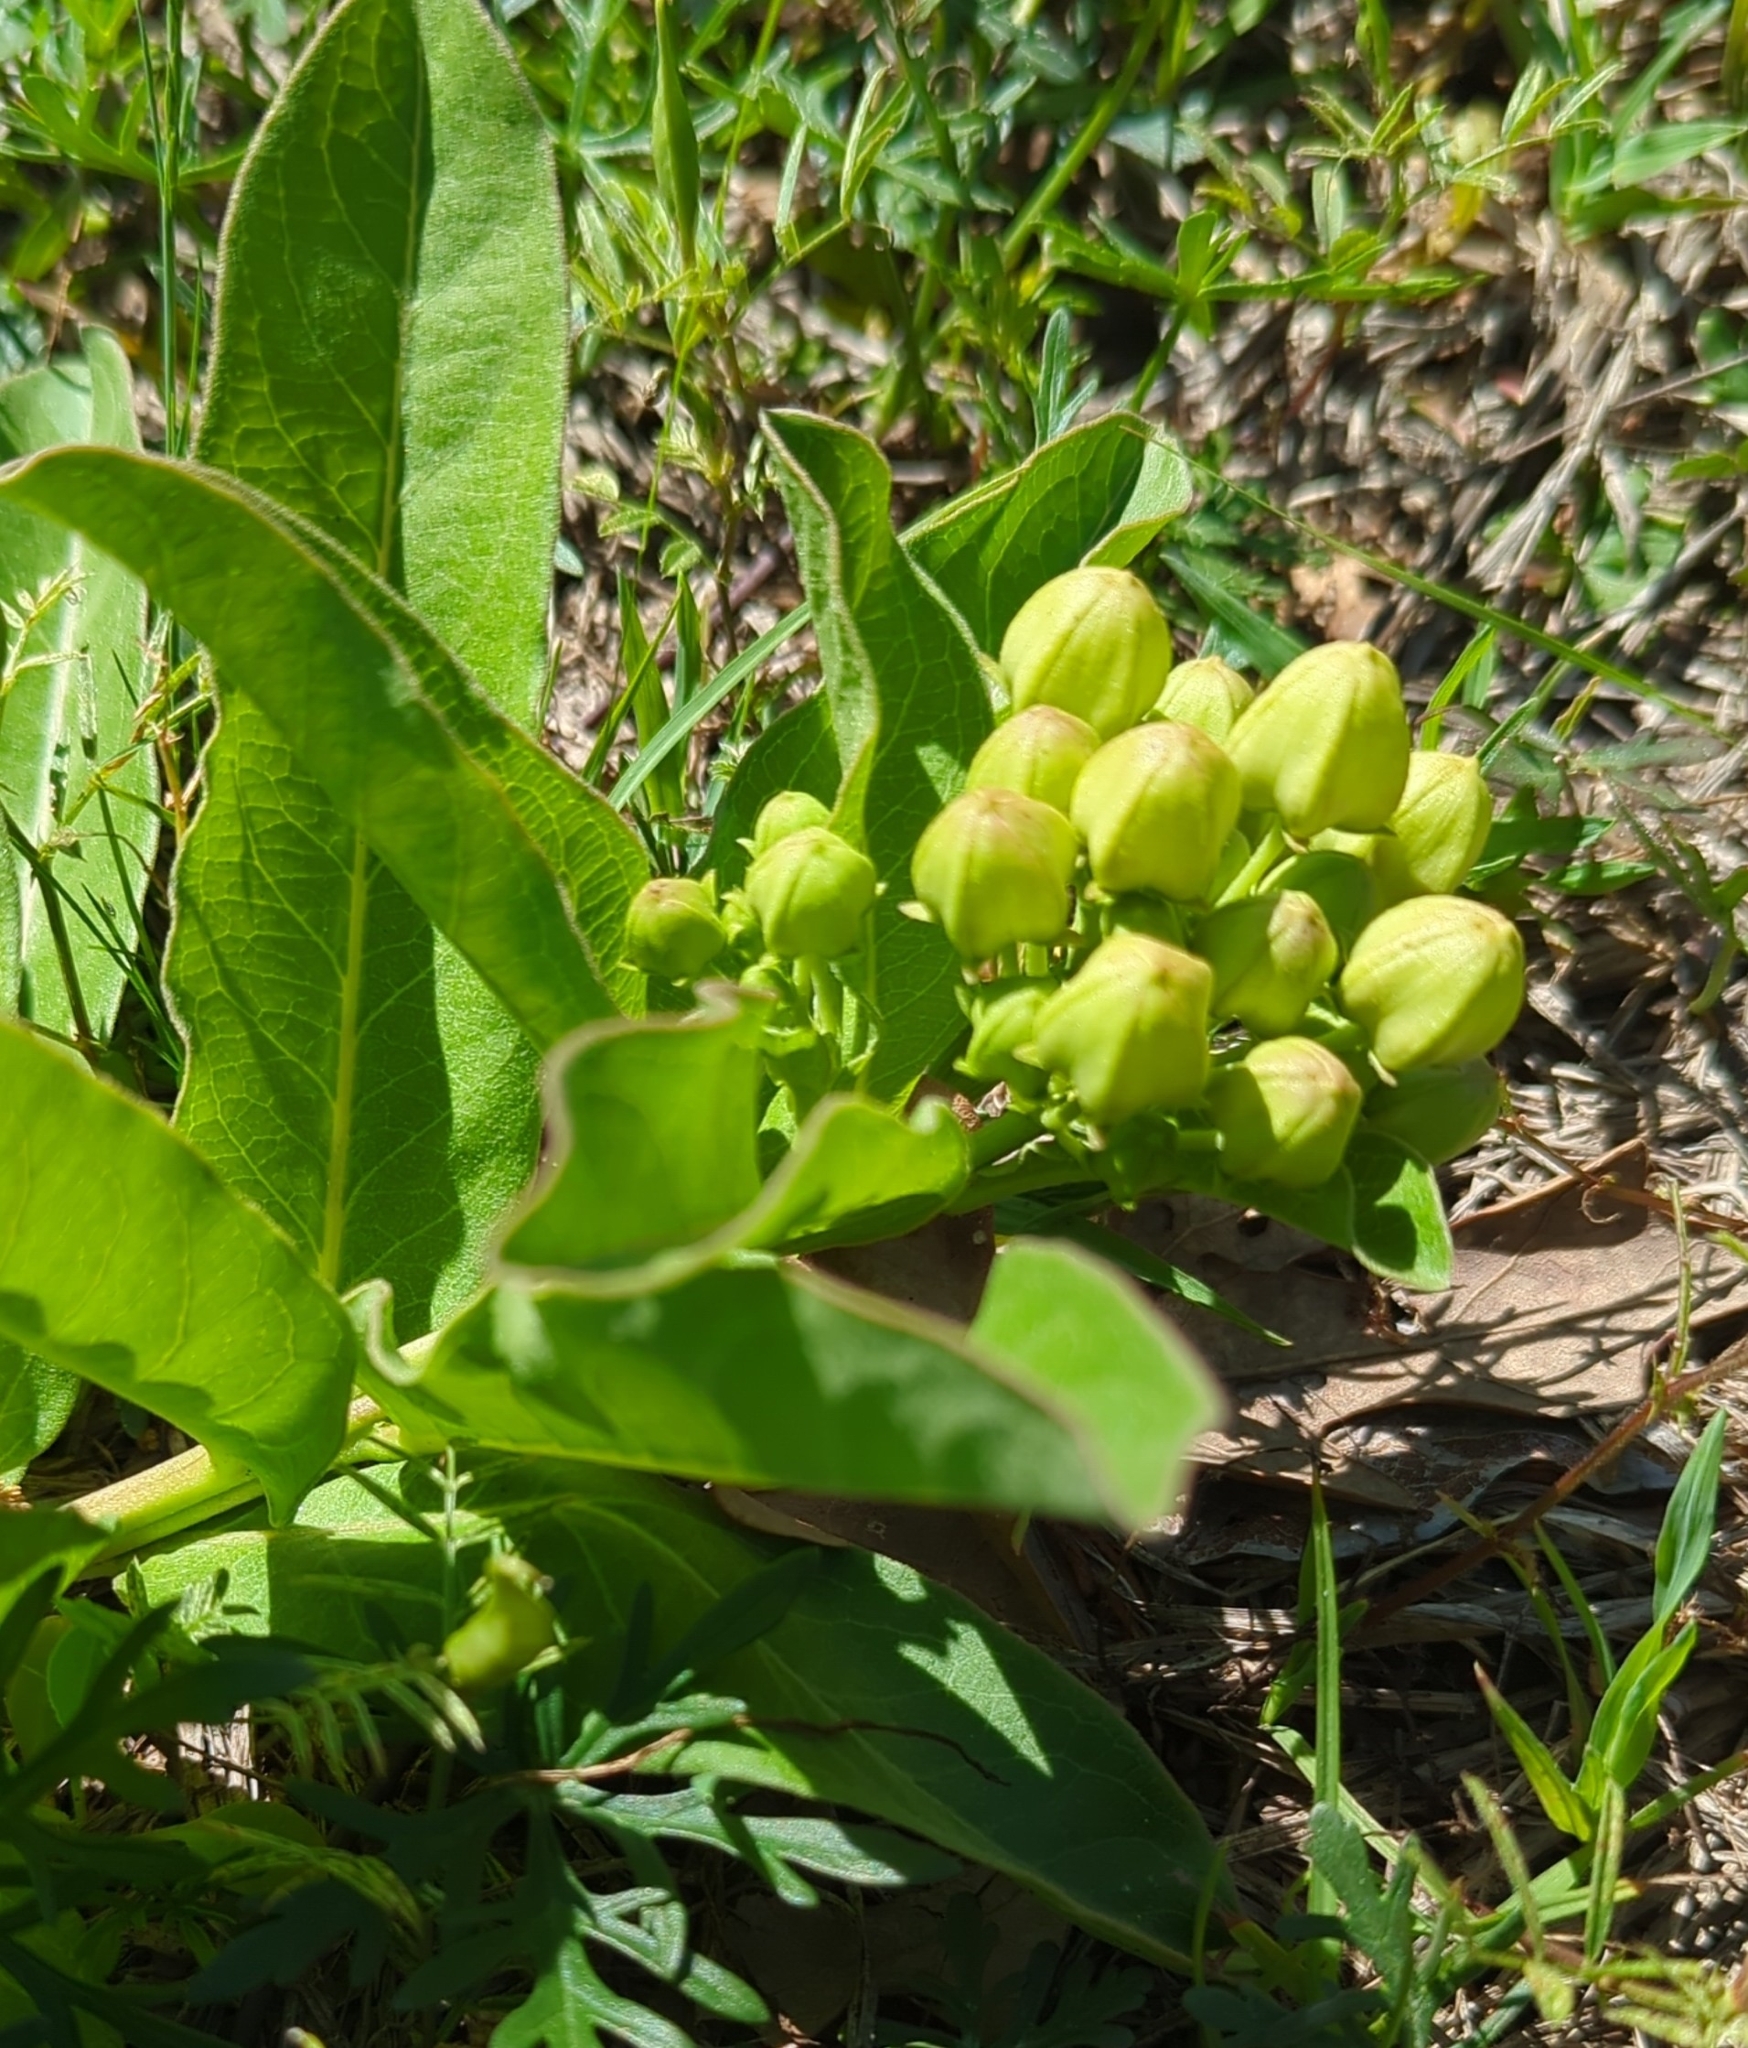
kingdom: Plantae
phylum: Tracheophyta
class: Magnoliopsida
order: Gentianales
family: Apocynaceae
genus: Asclepias
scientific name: Asclepias viridis
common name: Antelope-horns
